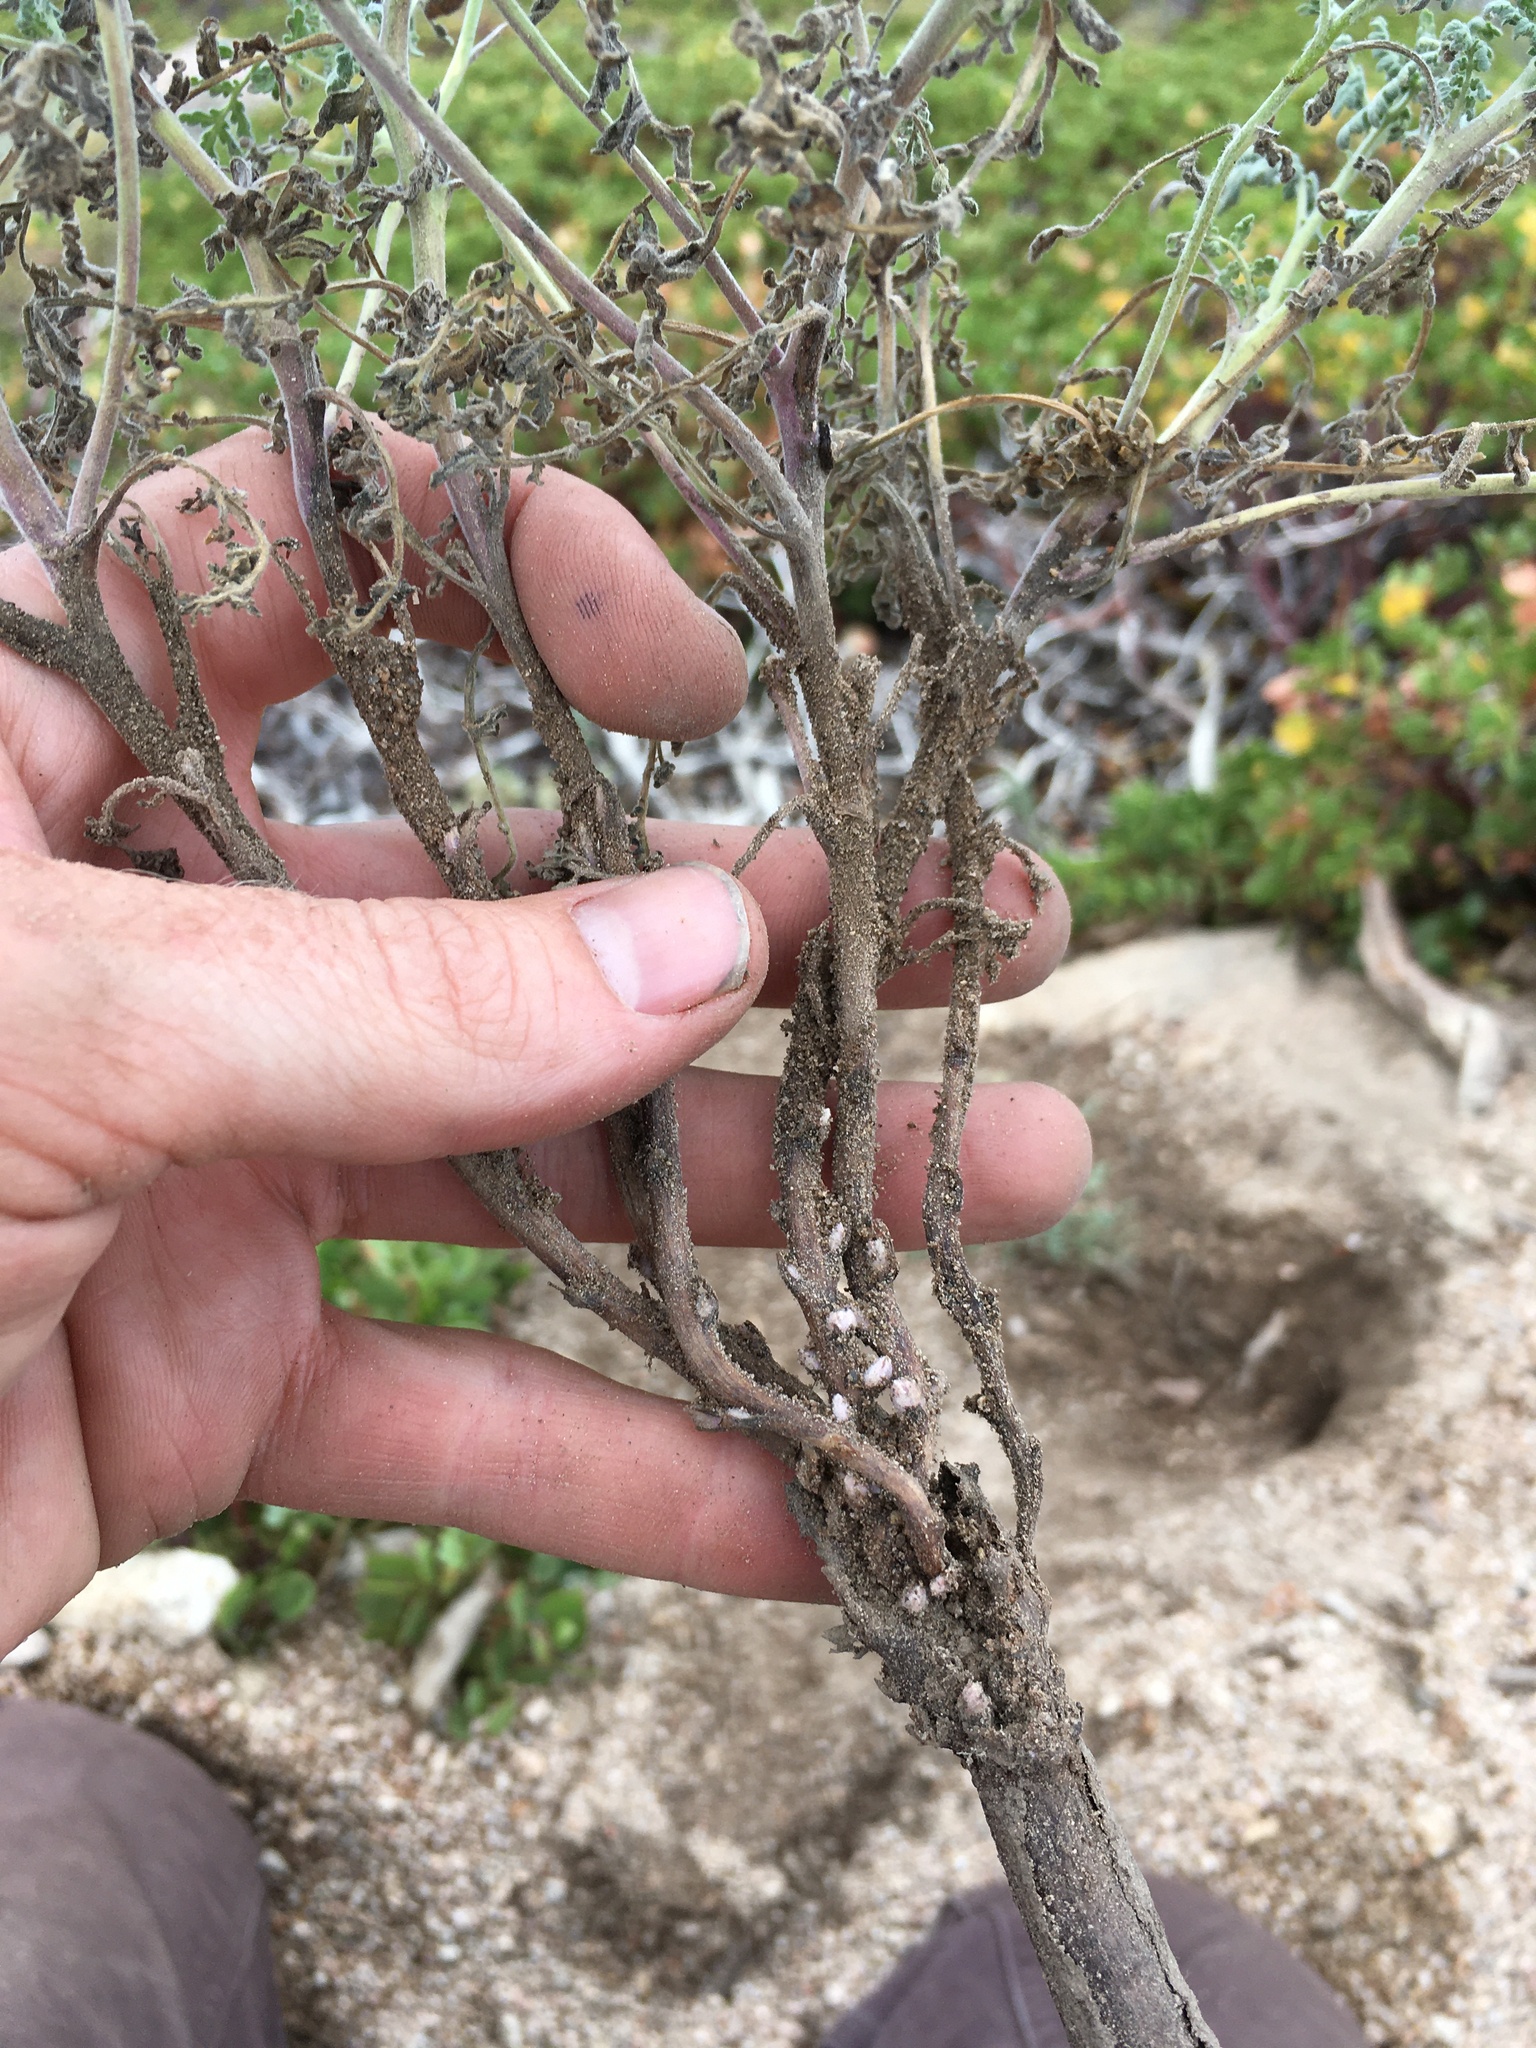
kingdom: Plantae
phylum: Tracheophyta
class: Magnoliopsida
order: Boraginales
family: Hydrophyllaceae
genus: Phacelia
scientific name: Phacelia ramosissima
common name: Branching phacelia
